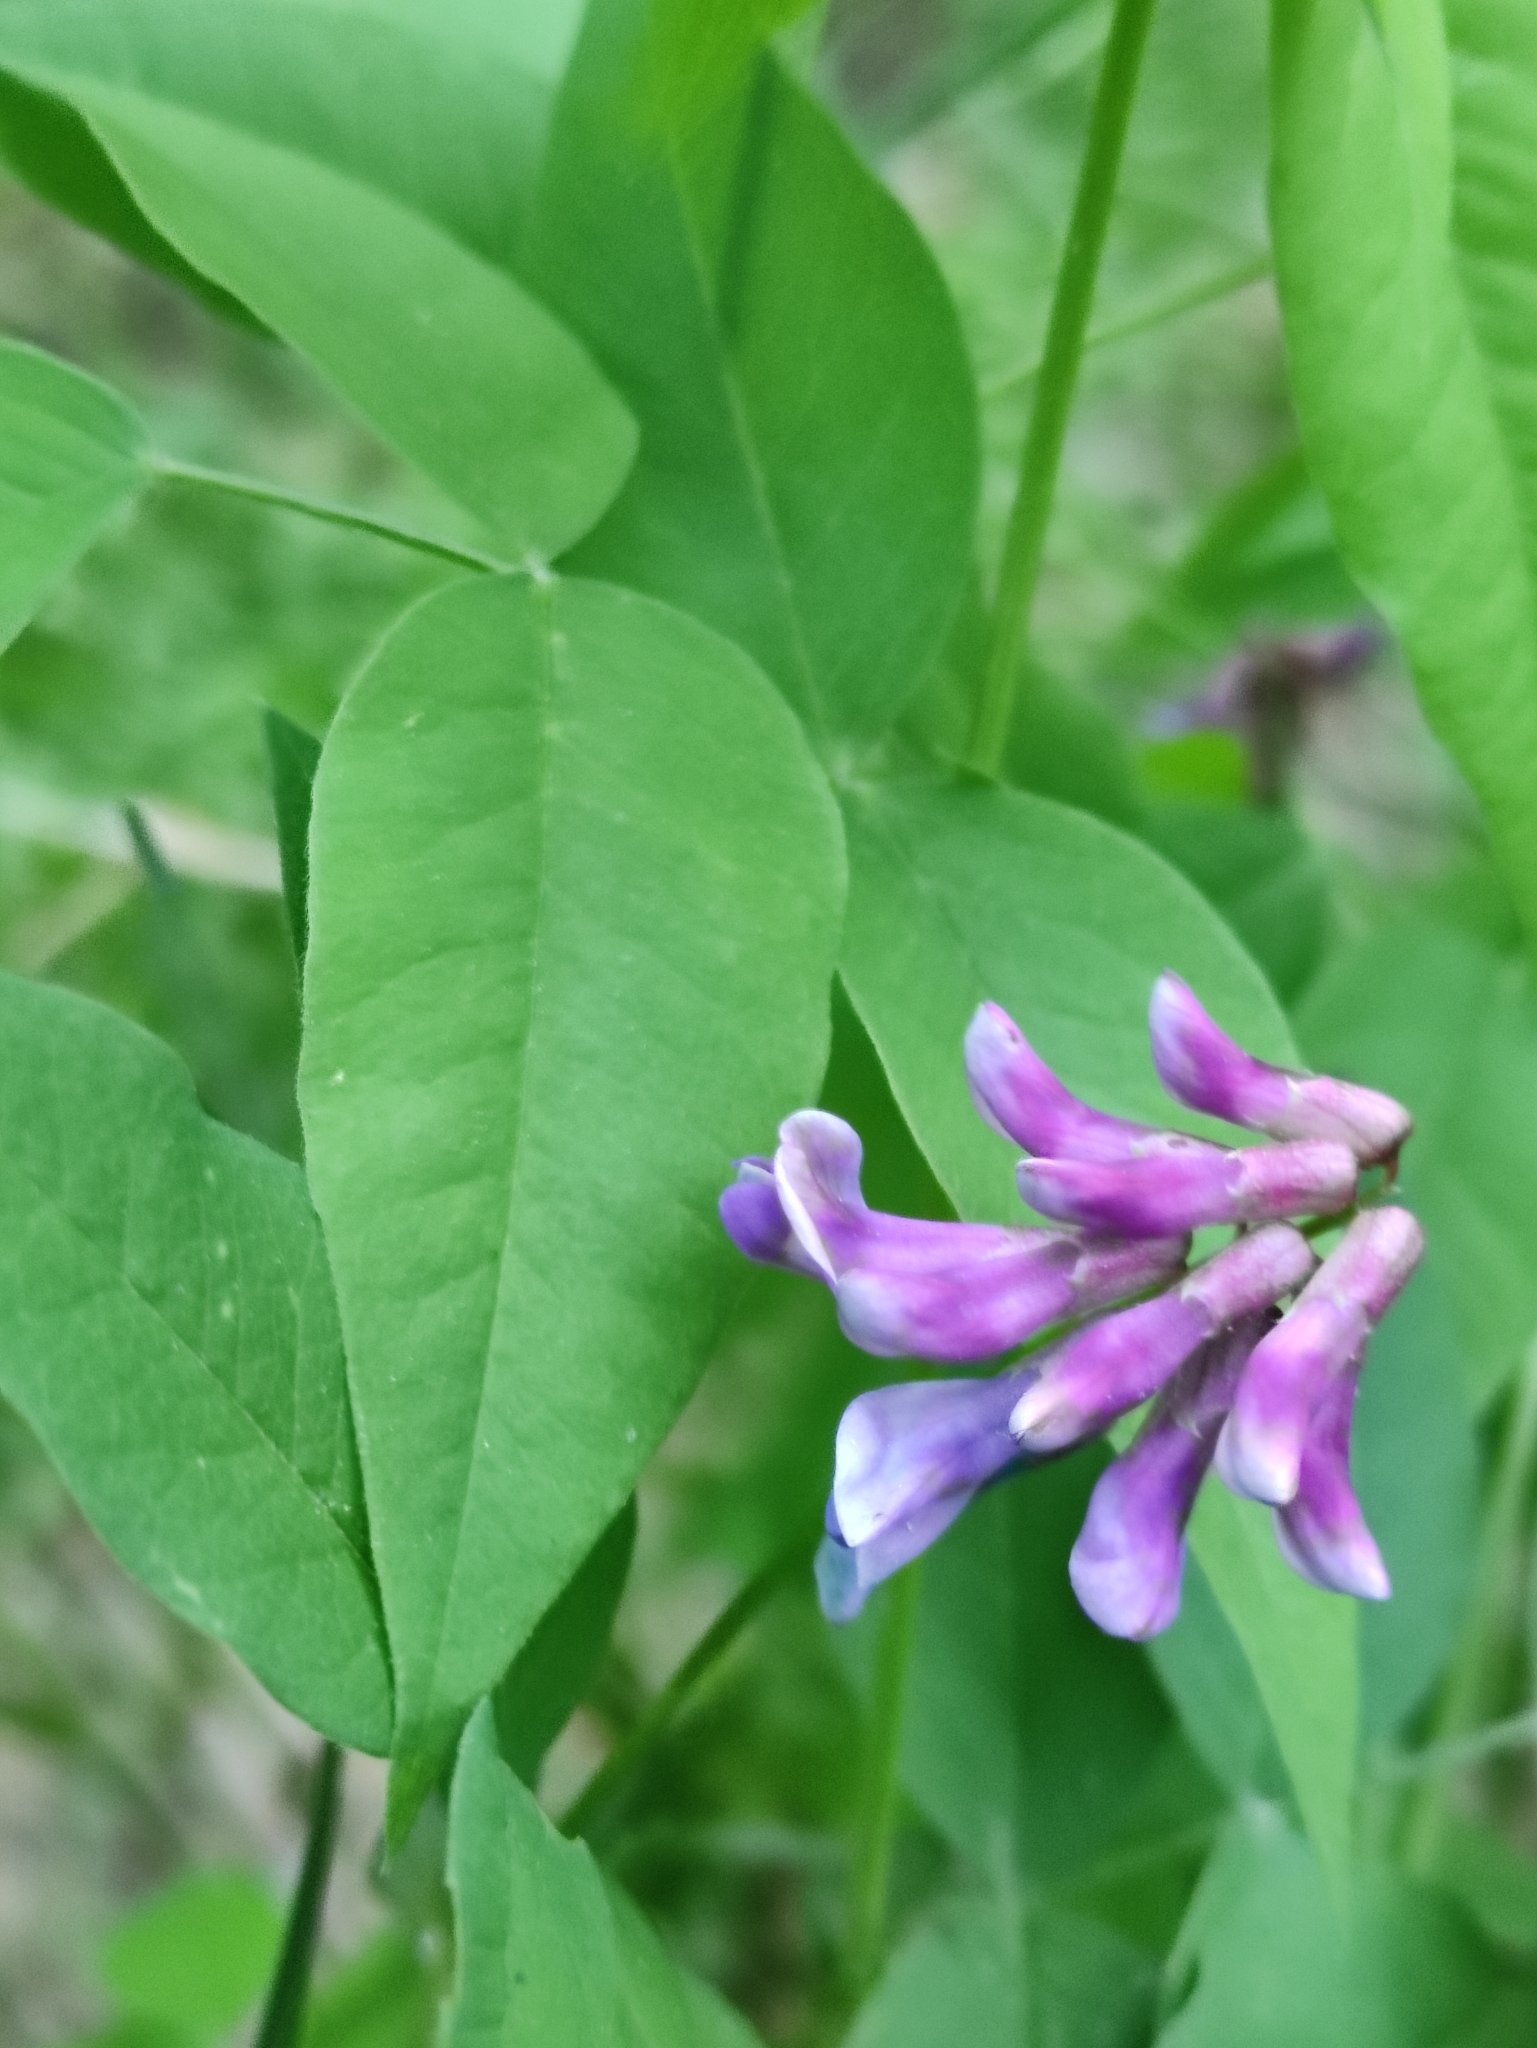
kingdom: Plantae
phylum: Tracheophyta
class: Magnoliopsida
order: Fabales
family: Fabaceae
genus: Vicia
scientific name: Vicia ramuliflora
